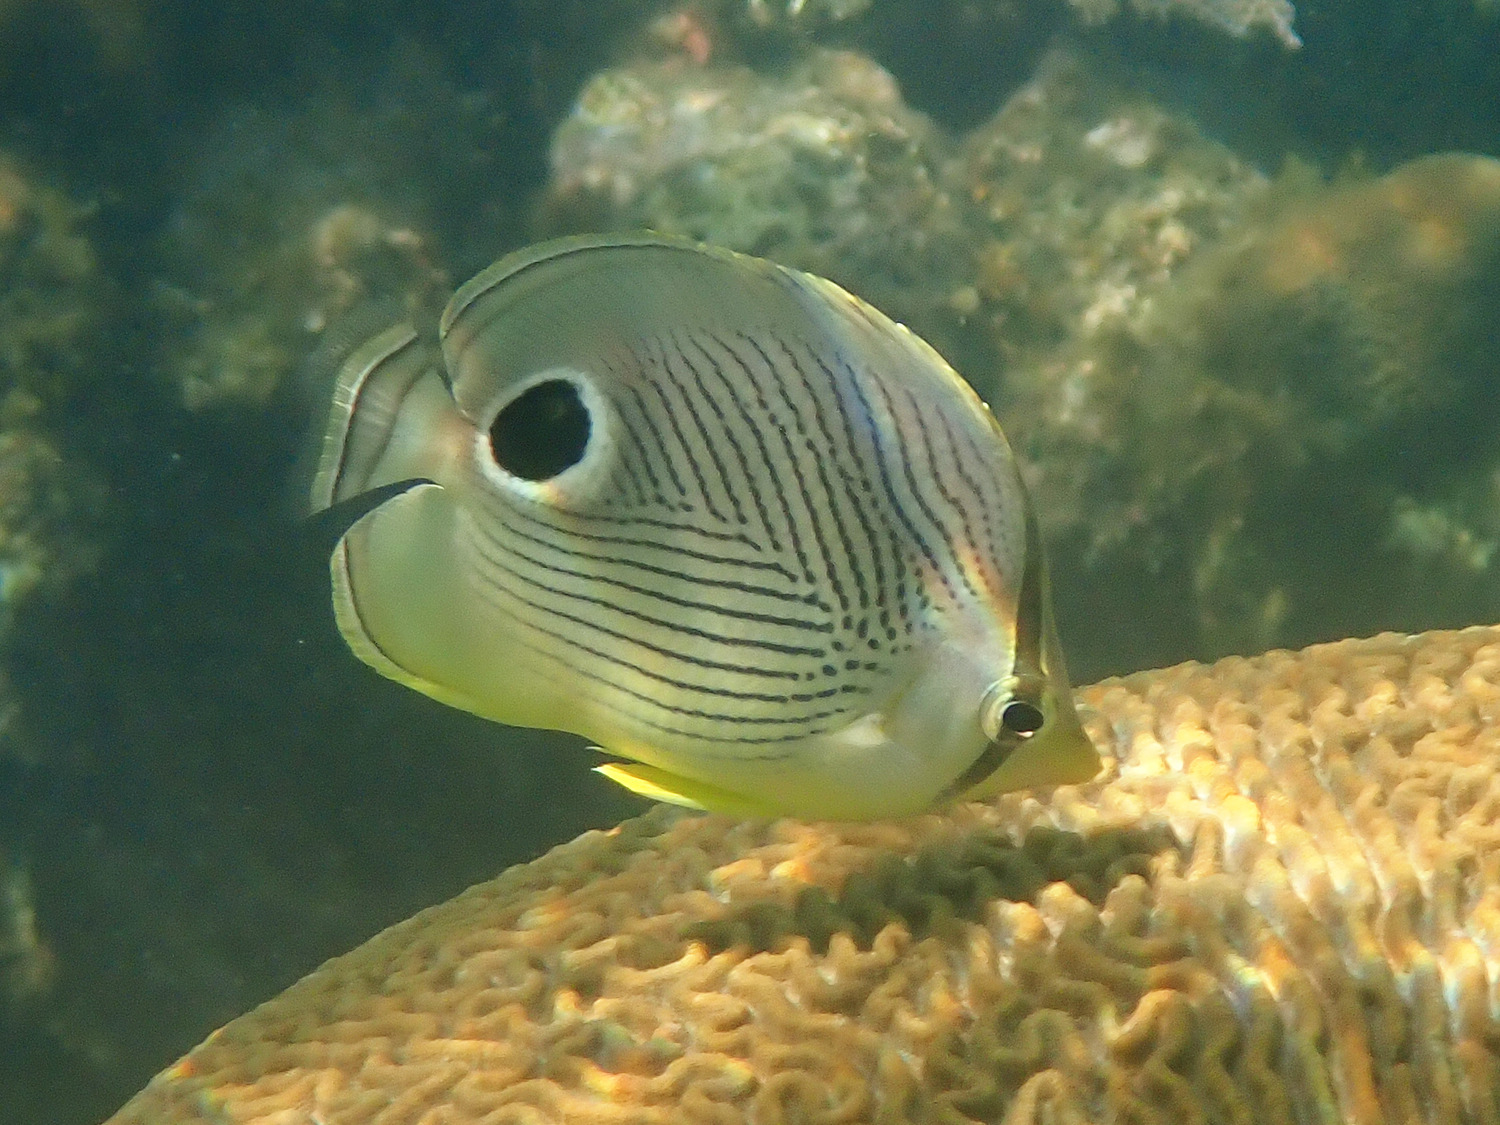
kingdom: Animalia
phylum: Chordata
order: Perciformes
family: Chaetodontidae
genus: Chaetodon
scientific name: Chaetodon capistratus
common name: Kete
